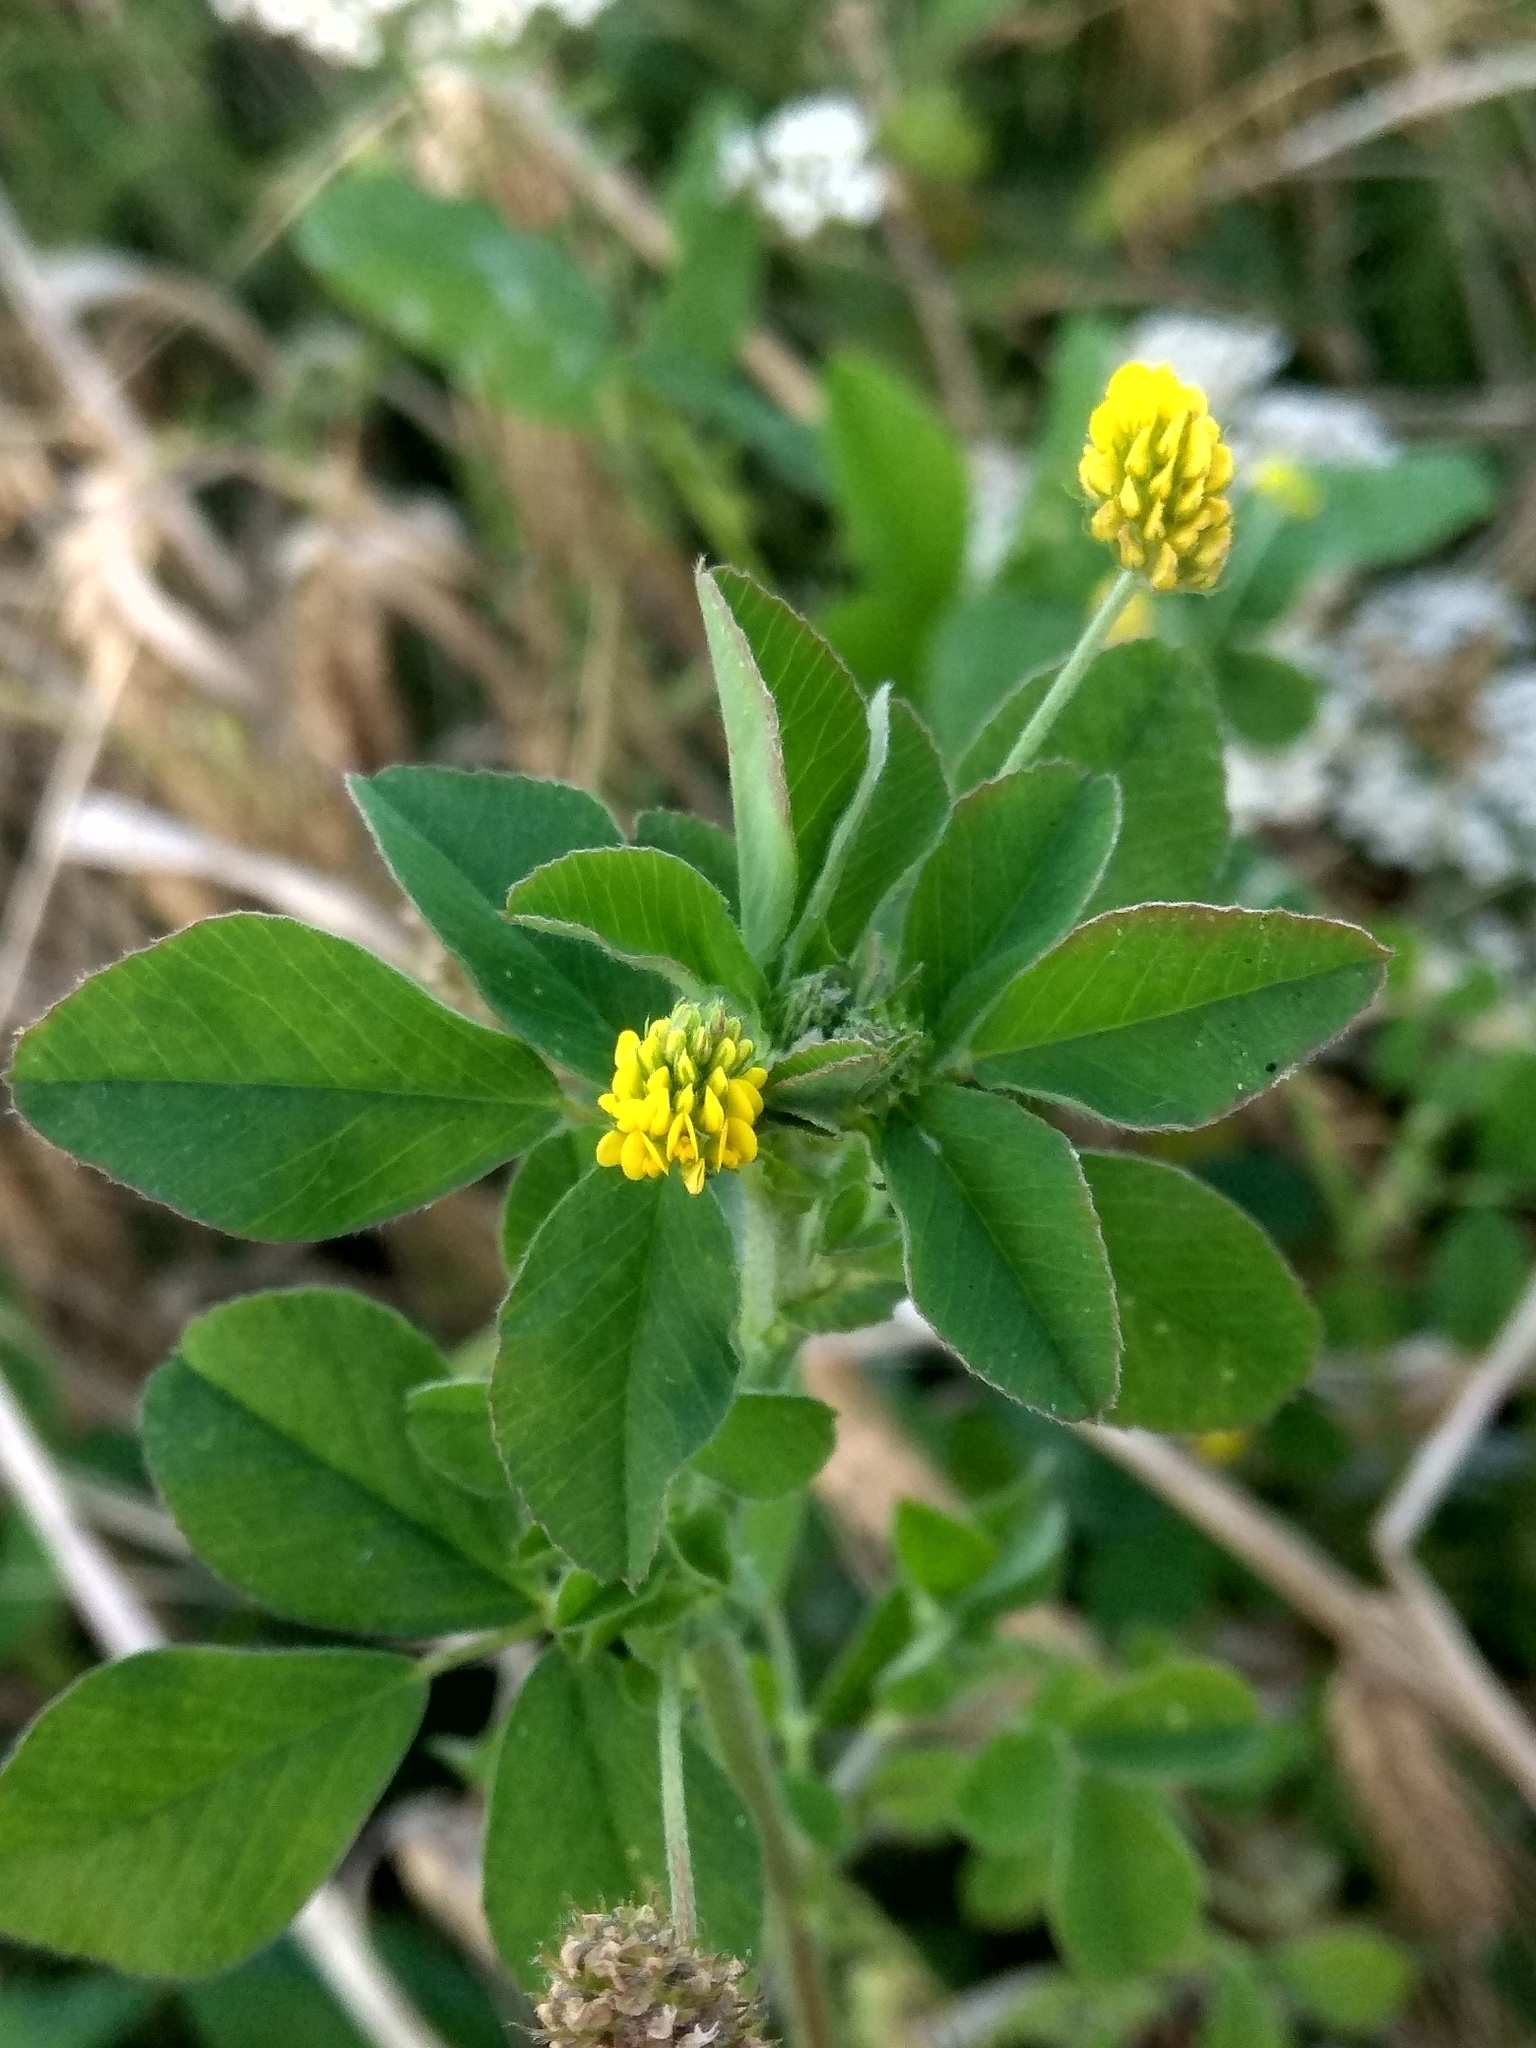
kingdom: Plantae
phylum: Tracheophyta
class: Magnoliopsida
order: Fabales
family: Fabaceae
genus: Medicago
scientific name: Medicago lupulina
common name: Black medick
